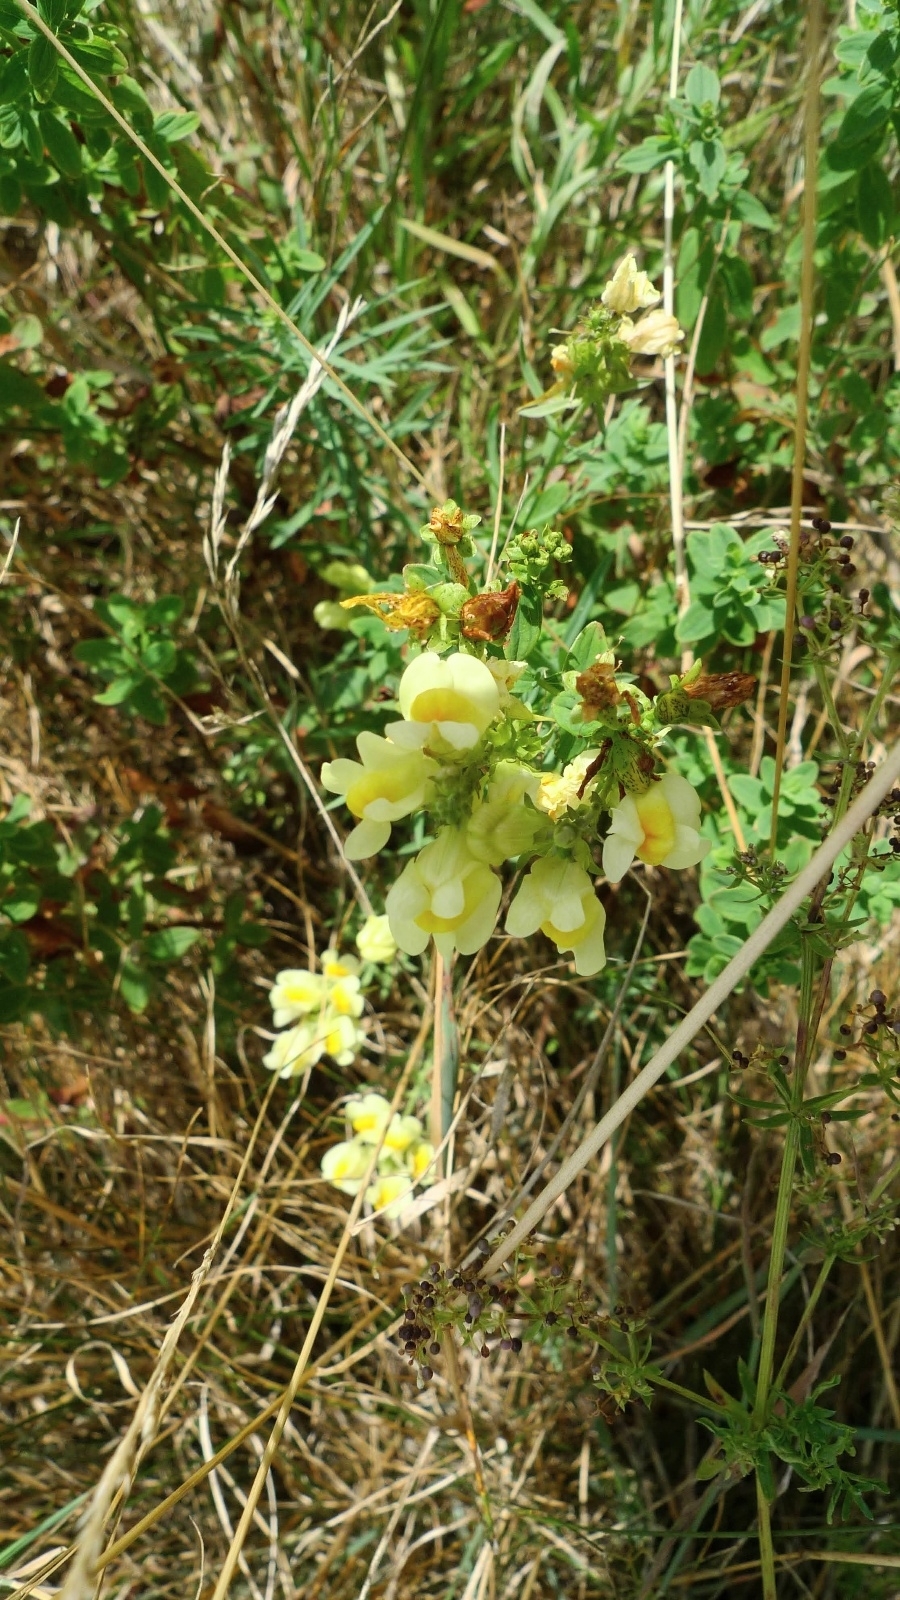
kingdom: Plantae
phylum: Tracheophyta
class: Magnoliopsida
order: Lamiales
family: Plantaginaceae
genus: Linaria
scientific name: Linaria vulgaris
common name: Butter and eggs
